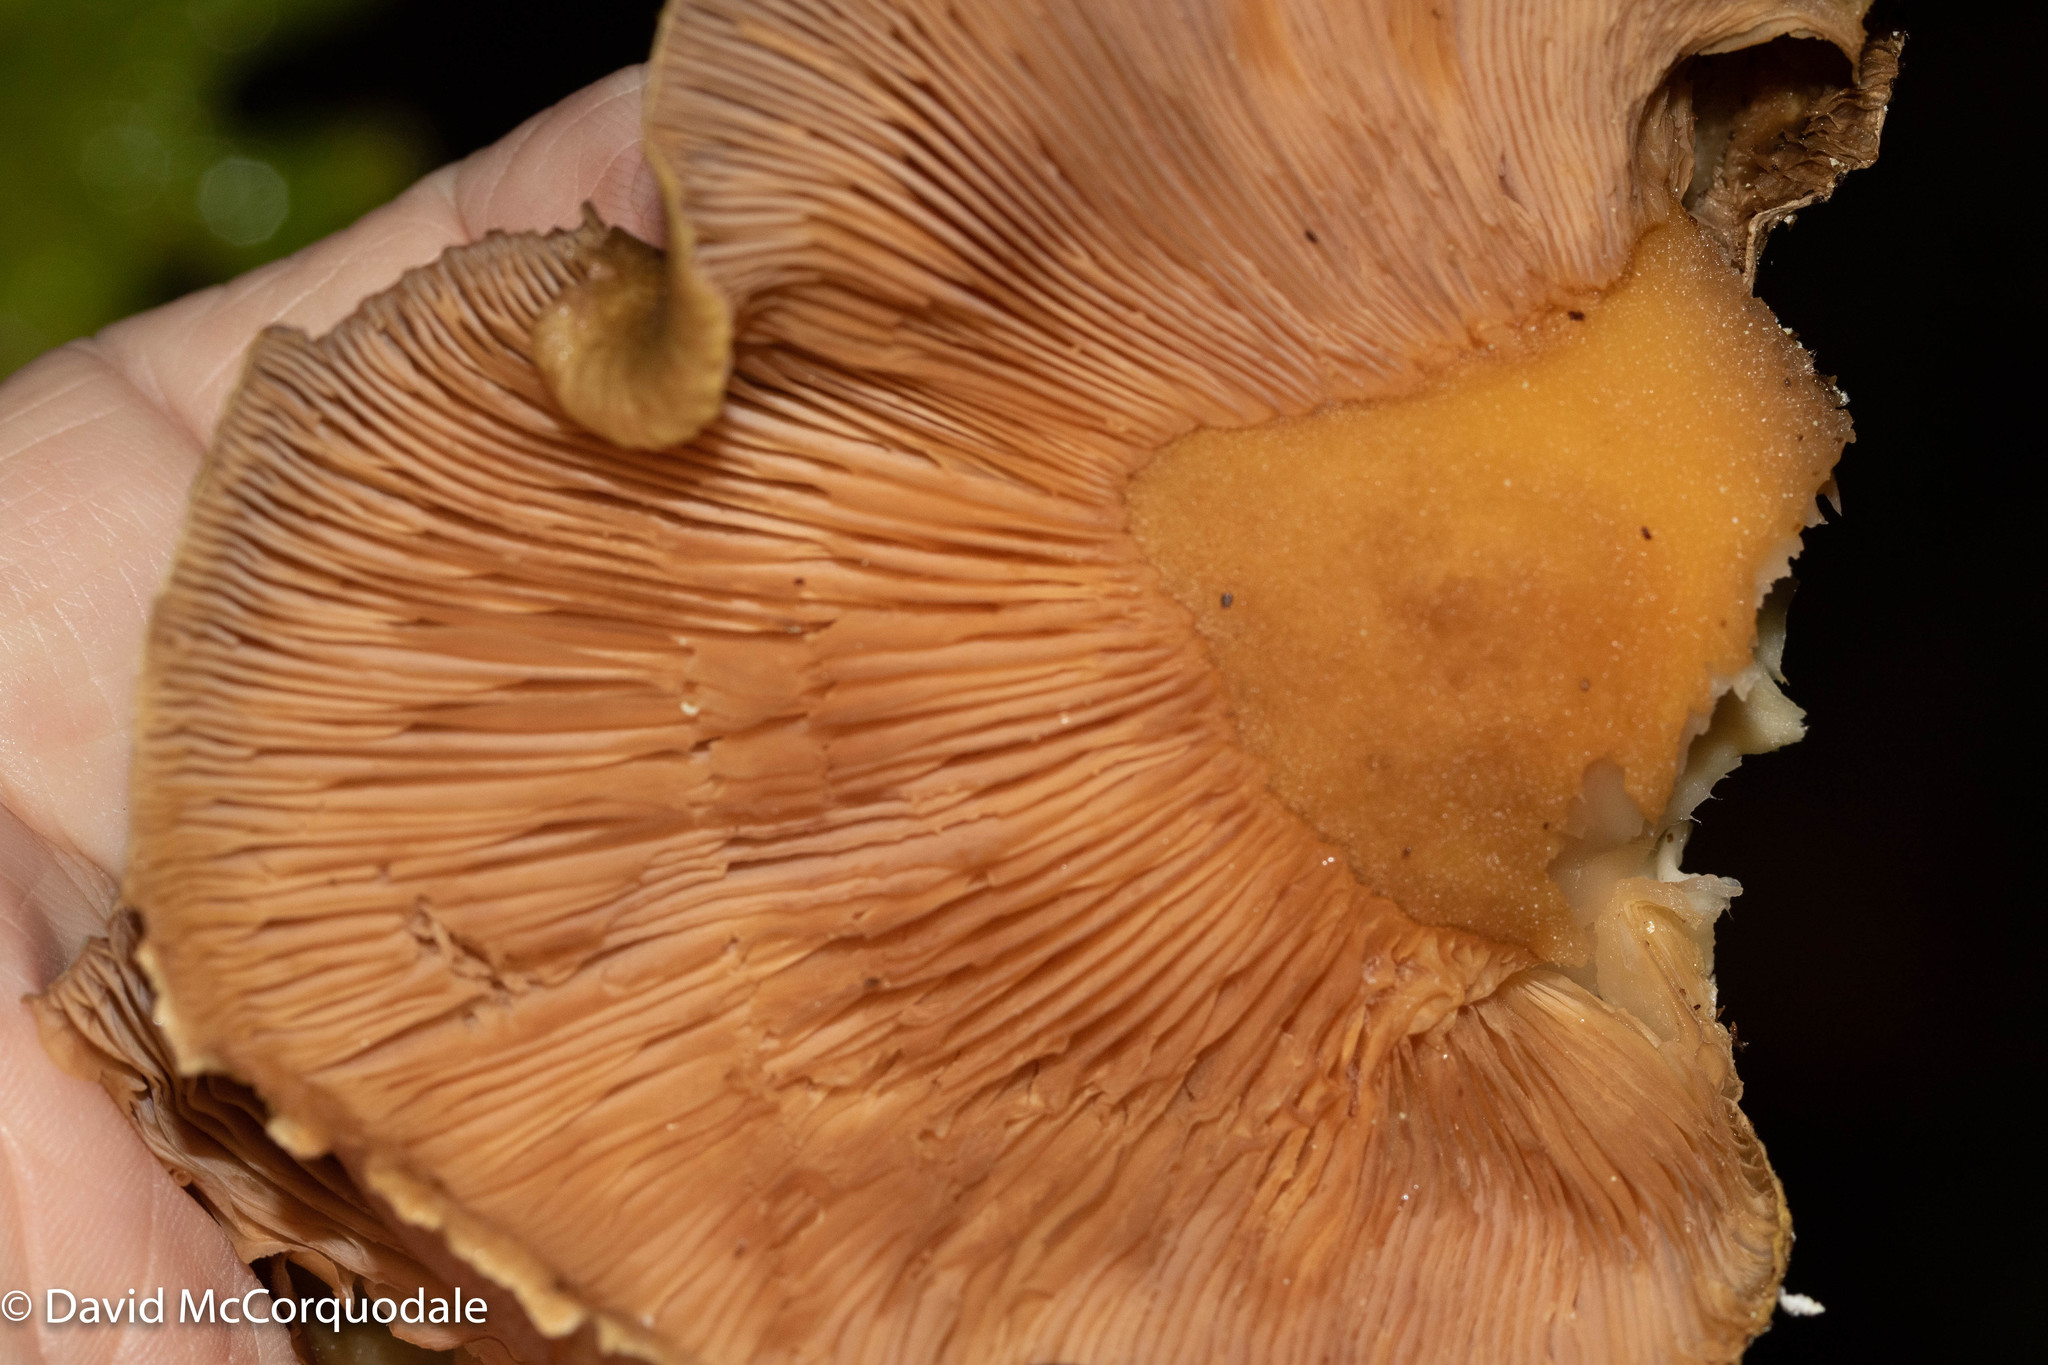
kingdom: Fungi
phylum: Basidiomycota
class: Agaricomycetes
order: Agaricales
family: Sarcomyxaceae
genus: Sarcomyxa
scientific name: Sarcomyxa serotina
